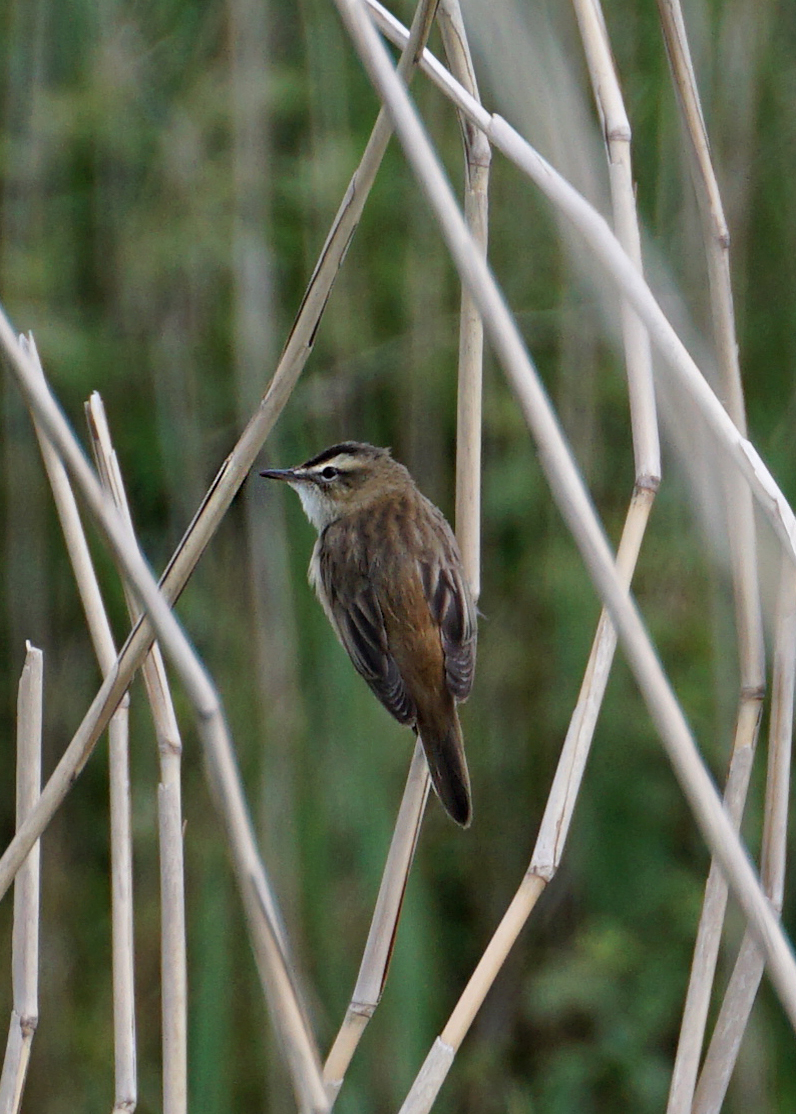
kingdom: Animalia
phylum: Chordata
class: Aves
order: Passeriformes
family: Acrocephalidae
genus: Acrocephalus
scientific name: Acrocephalus schoenobaenus
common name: Sedge warbler
